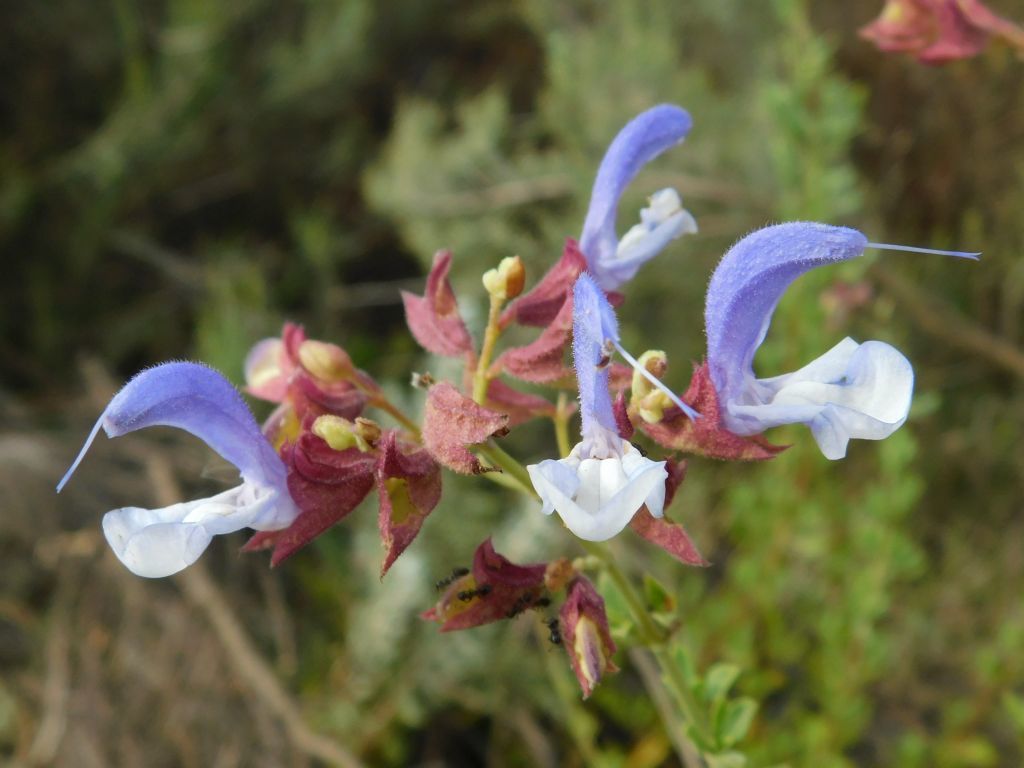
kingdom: Plantae
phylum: Tracheophyta
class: Magnoliopsida
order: Lamiales
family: Lamiaceae
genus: Salvia
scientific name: Salvia chamelaeagnea
